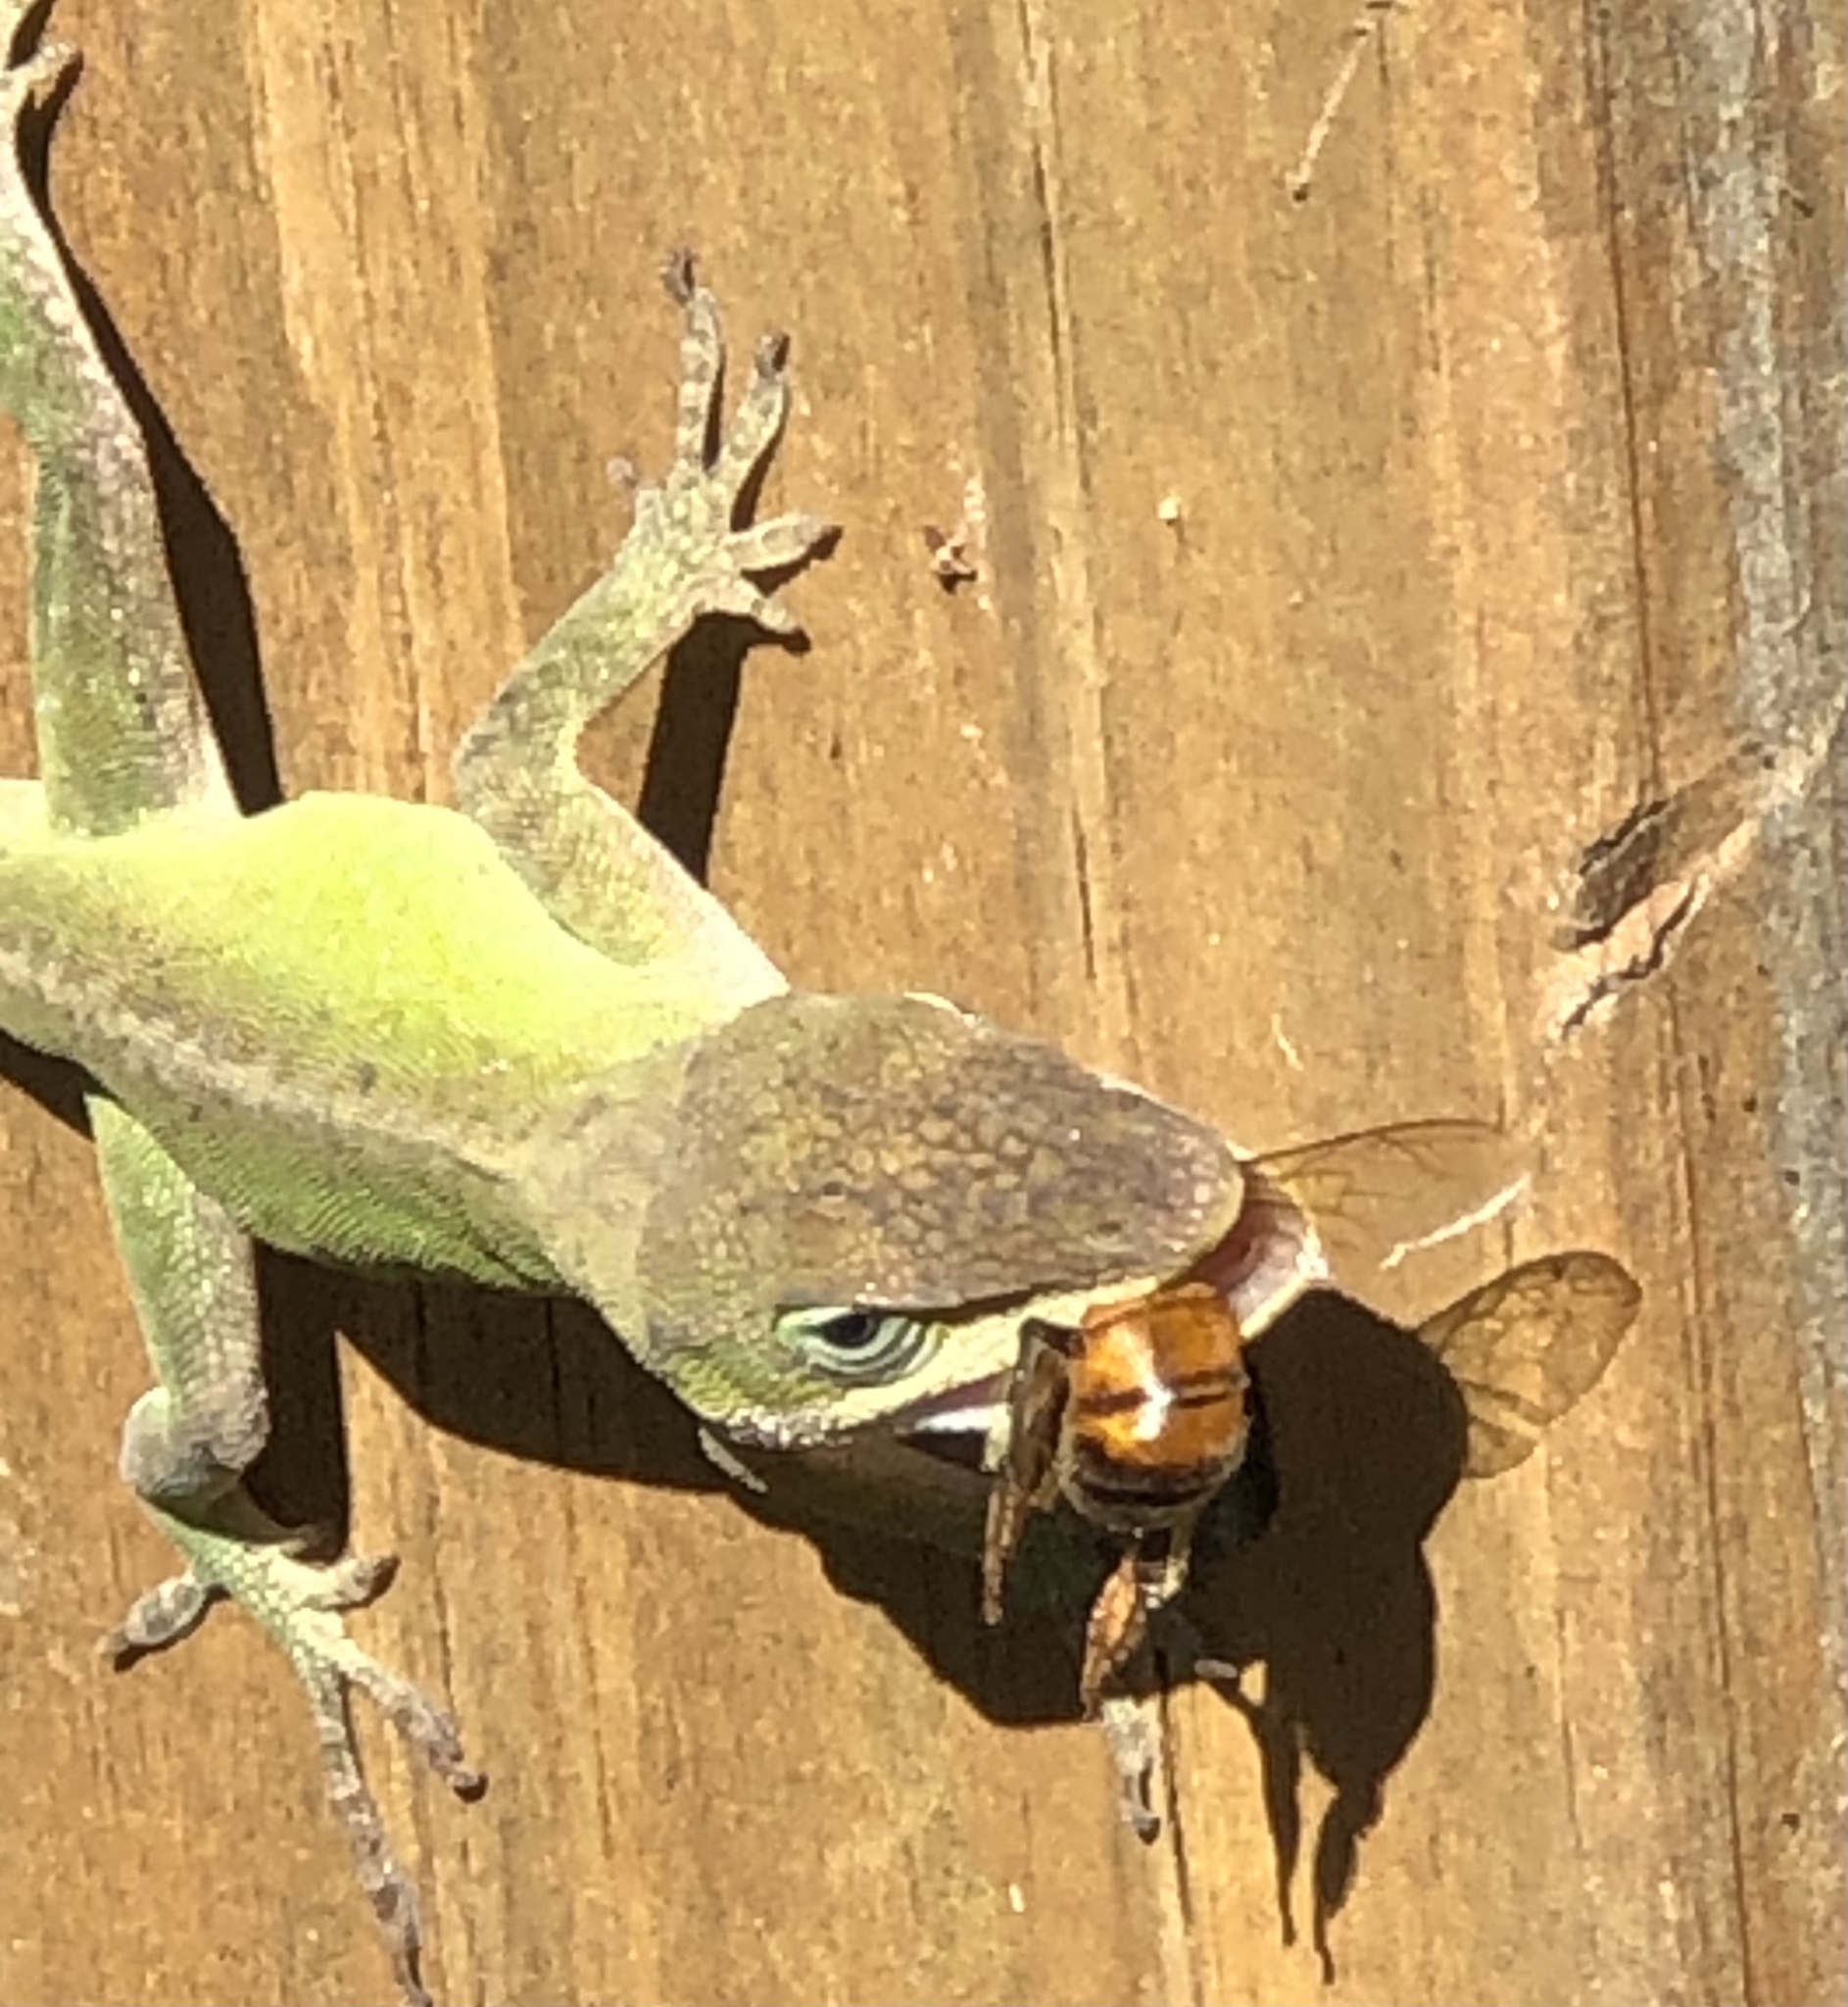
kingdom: Animalia
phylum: Arthropoda
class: Insecta
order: Hymenoptera
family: Apidae
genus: Apis
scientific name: Apis mellifera
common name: Honey bee
